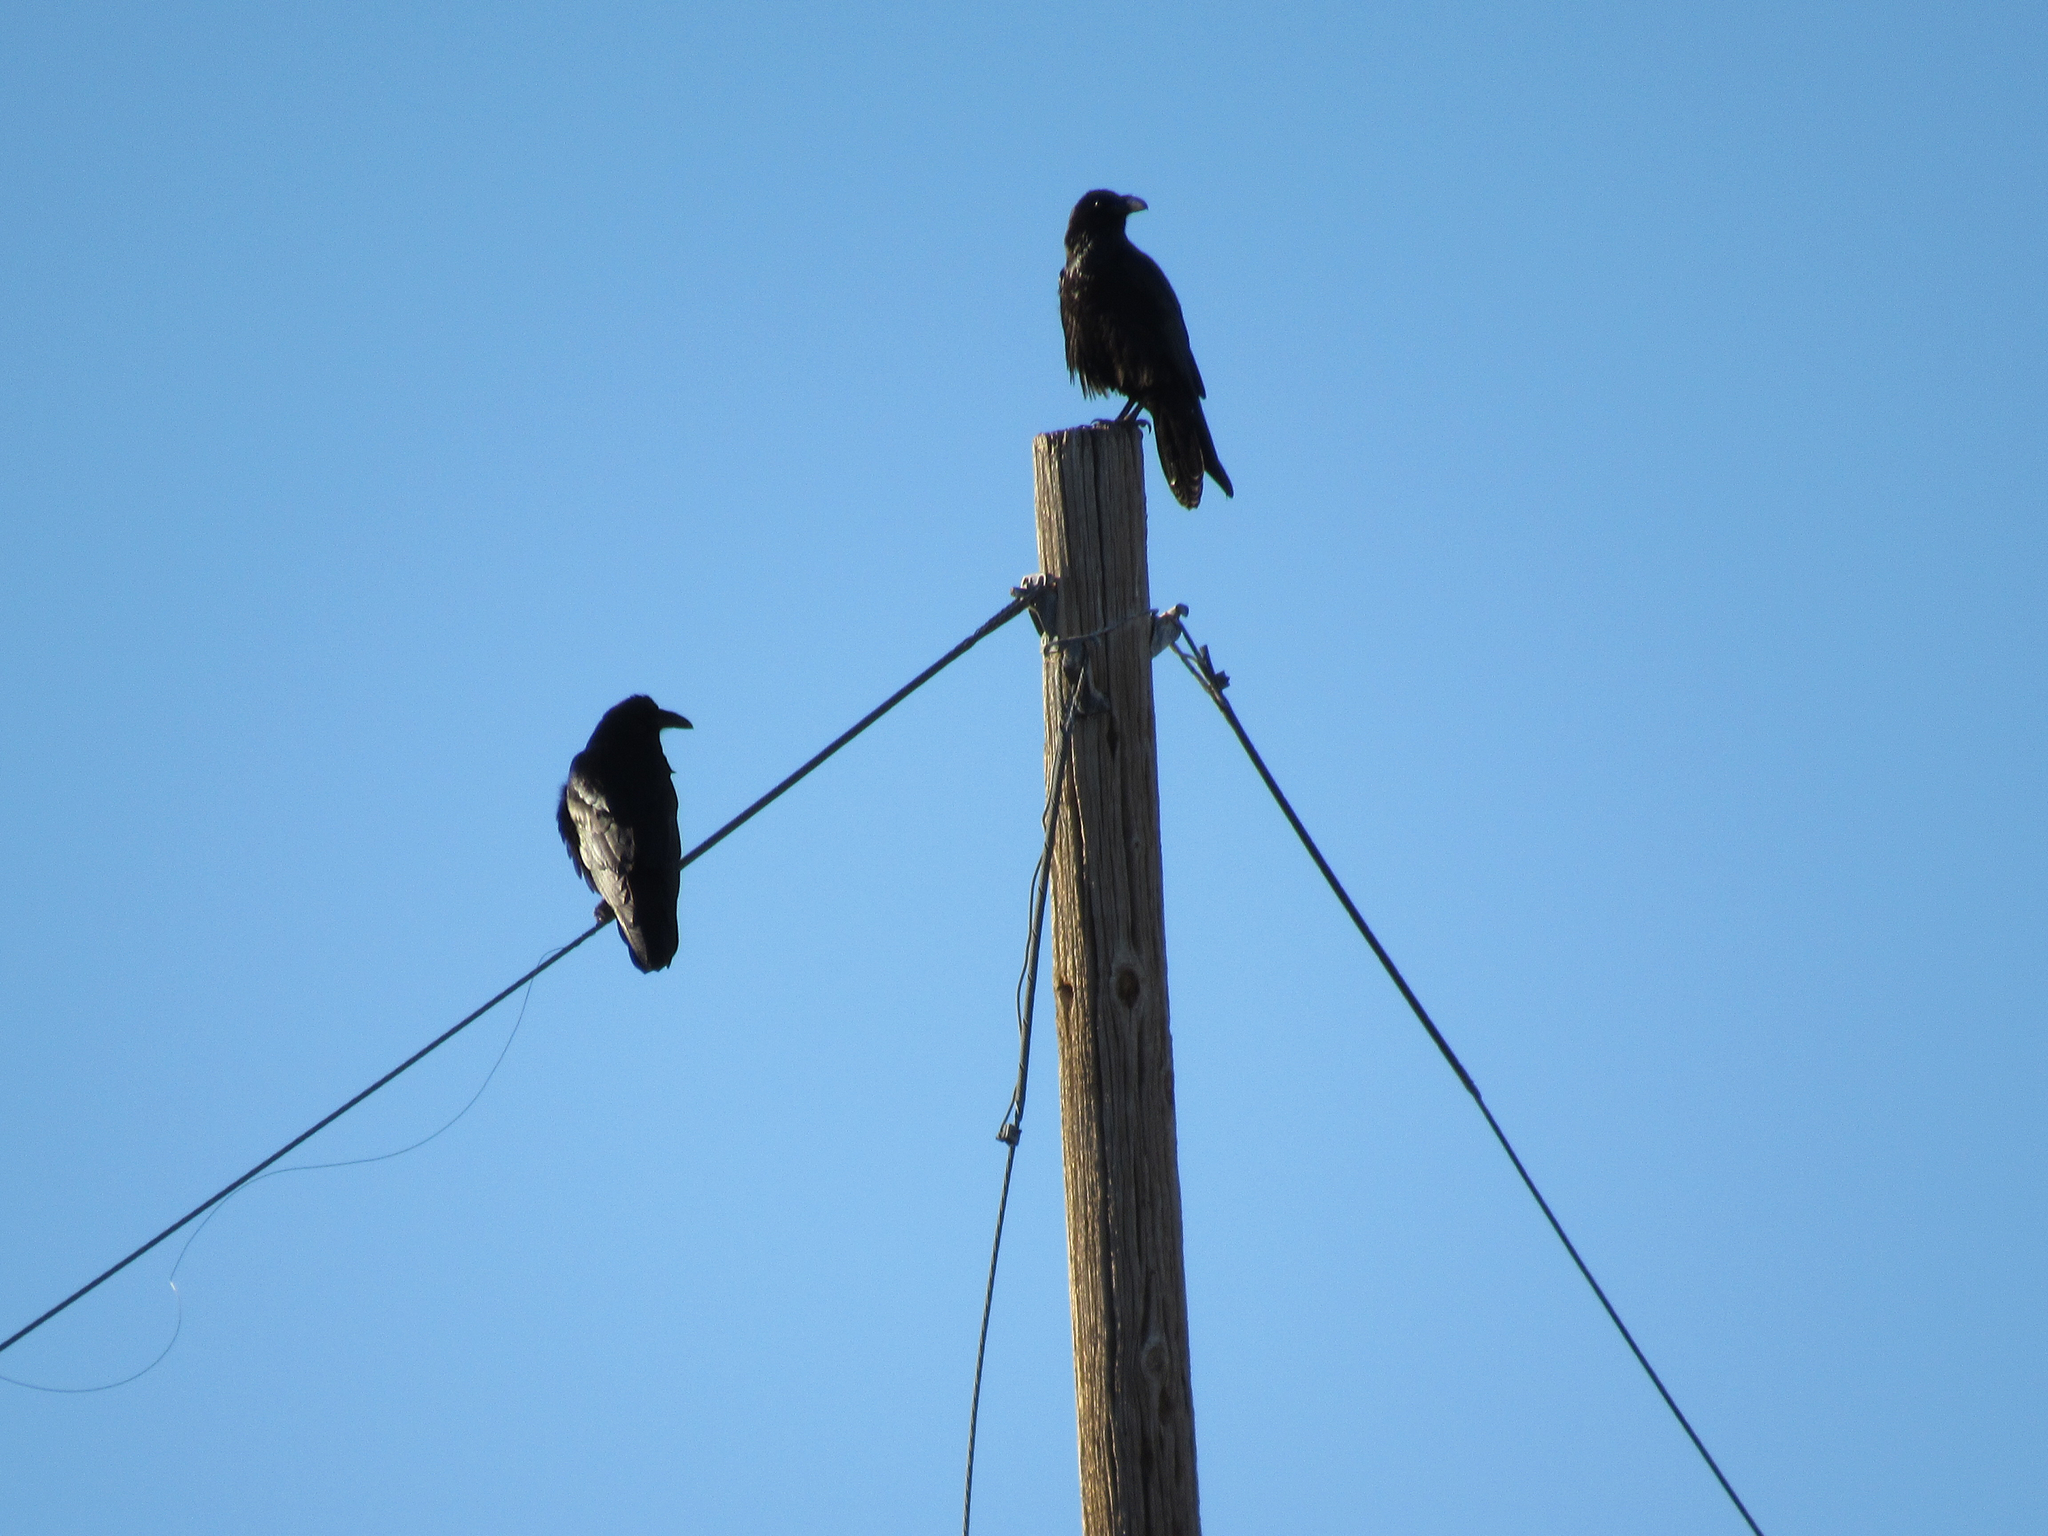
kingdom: Animalia
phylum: Chordata
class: Aves
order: Passeriformes
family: Corvidae
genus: Corvus
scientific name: Corvus corax
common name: Common raven
